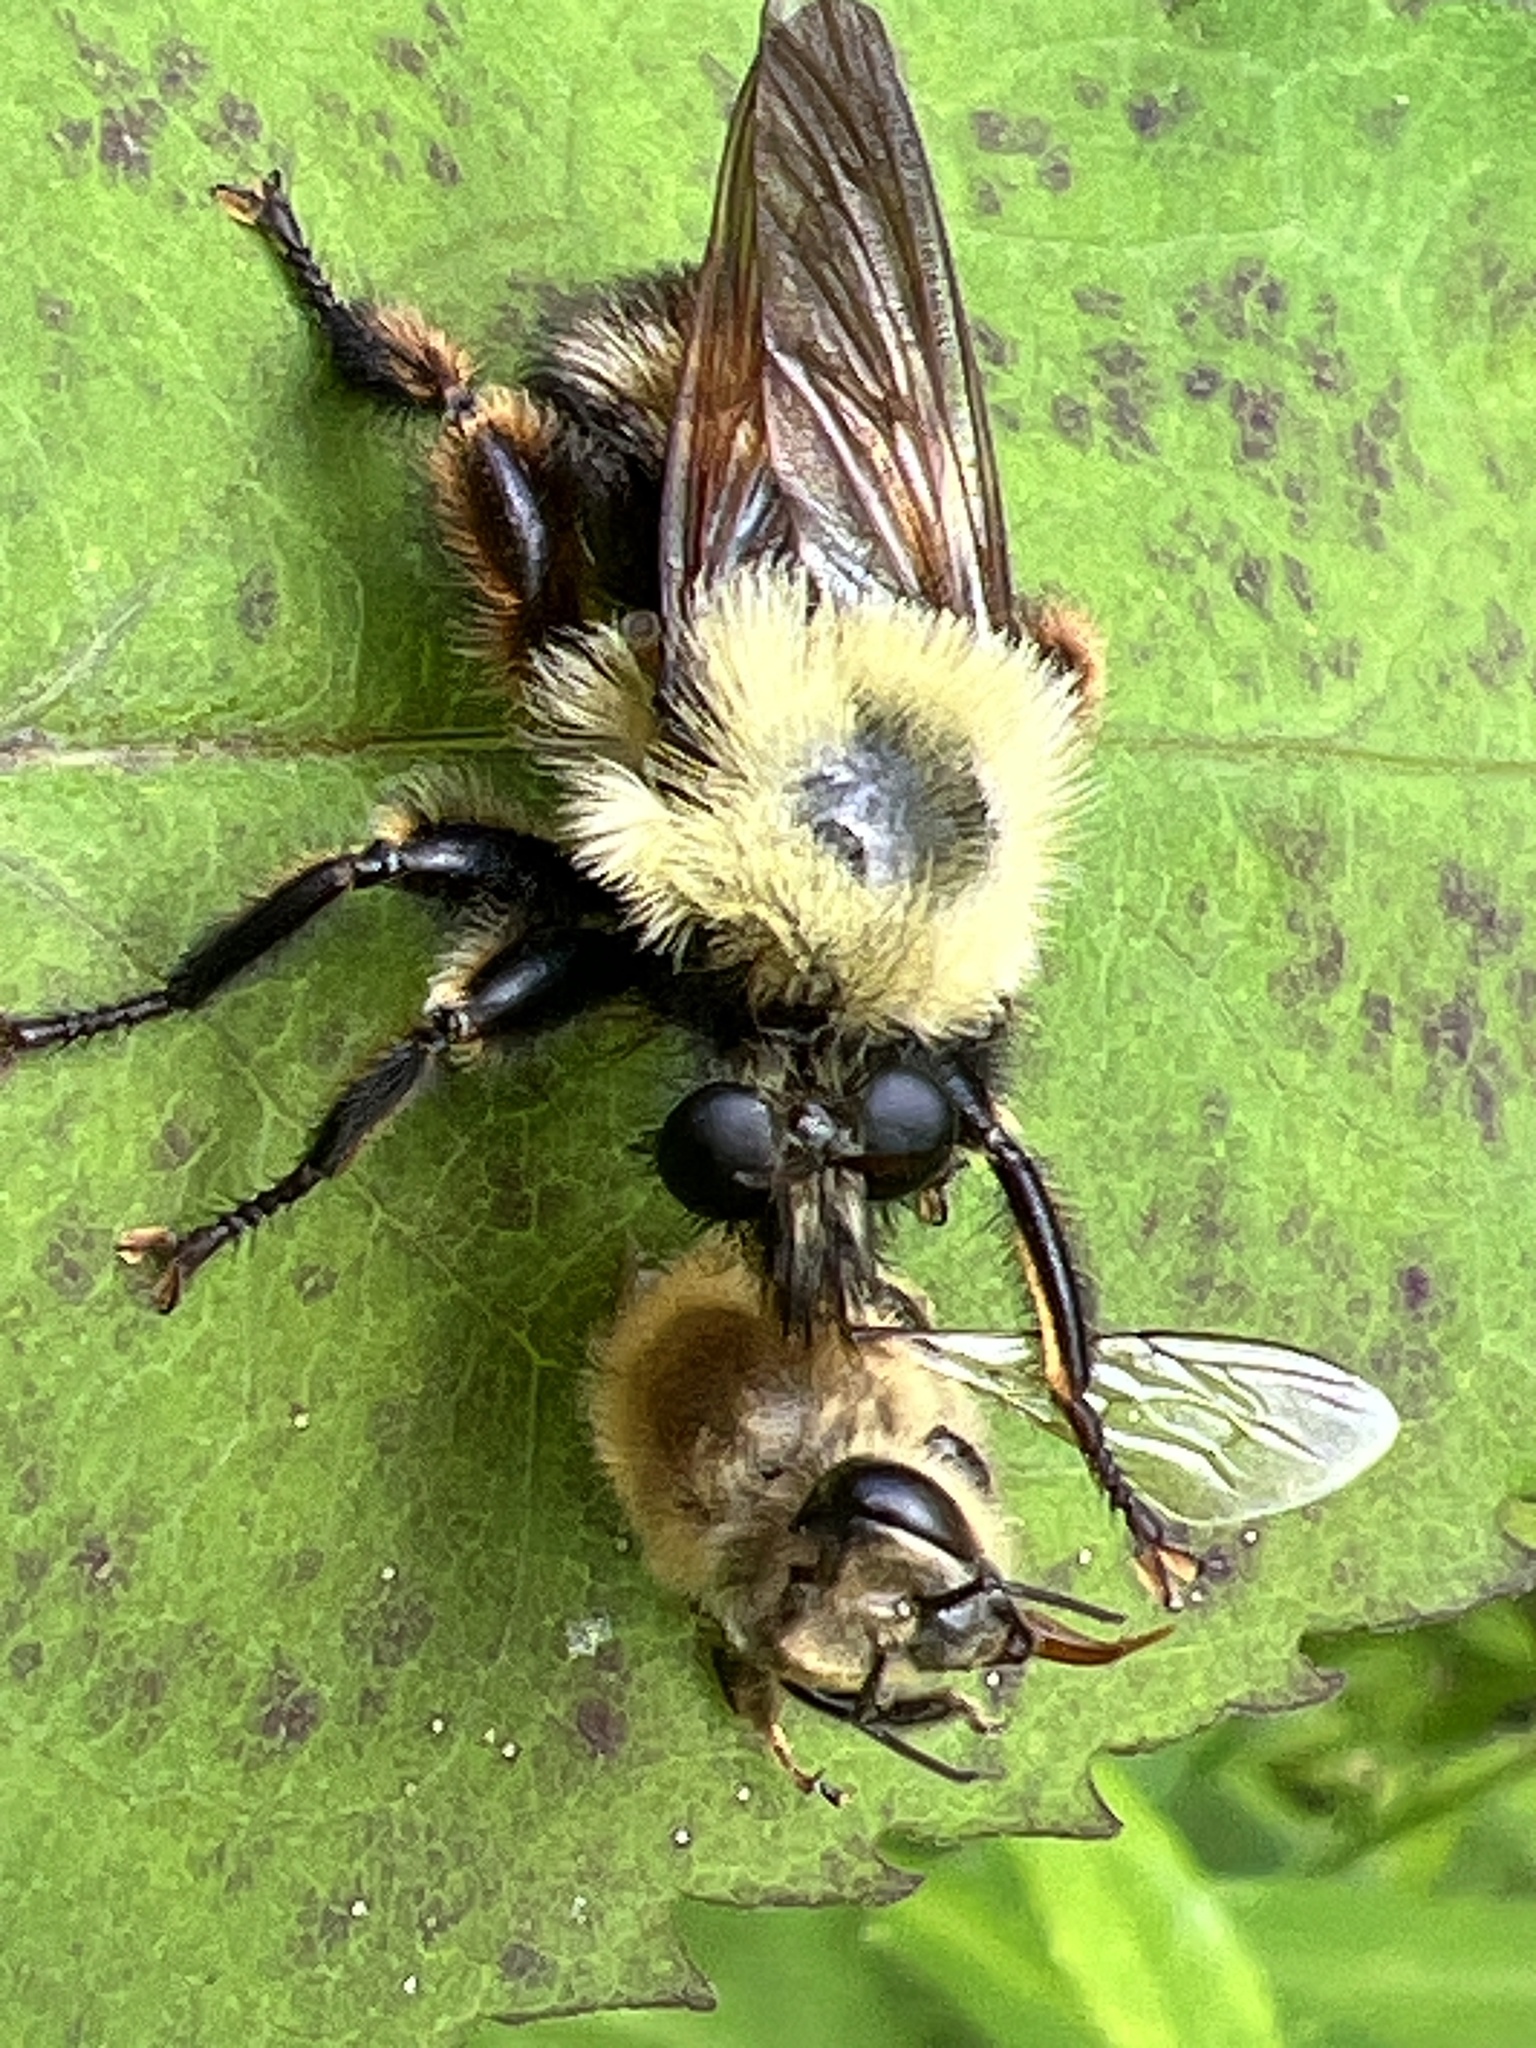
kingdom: Animalia
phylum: Arthropoda
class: Insecta
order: Diptera
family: Asilidae
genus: Laphria
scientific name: Laphria thoracica
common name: Bumble bee mimic robber fly
